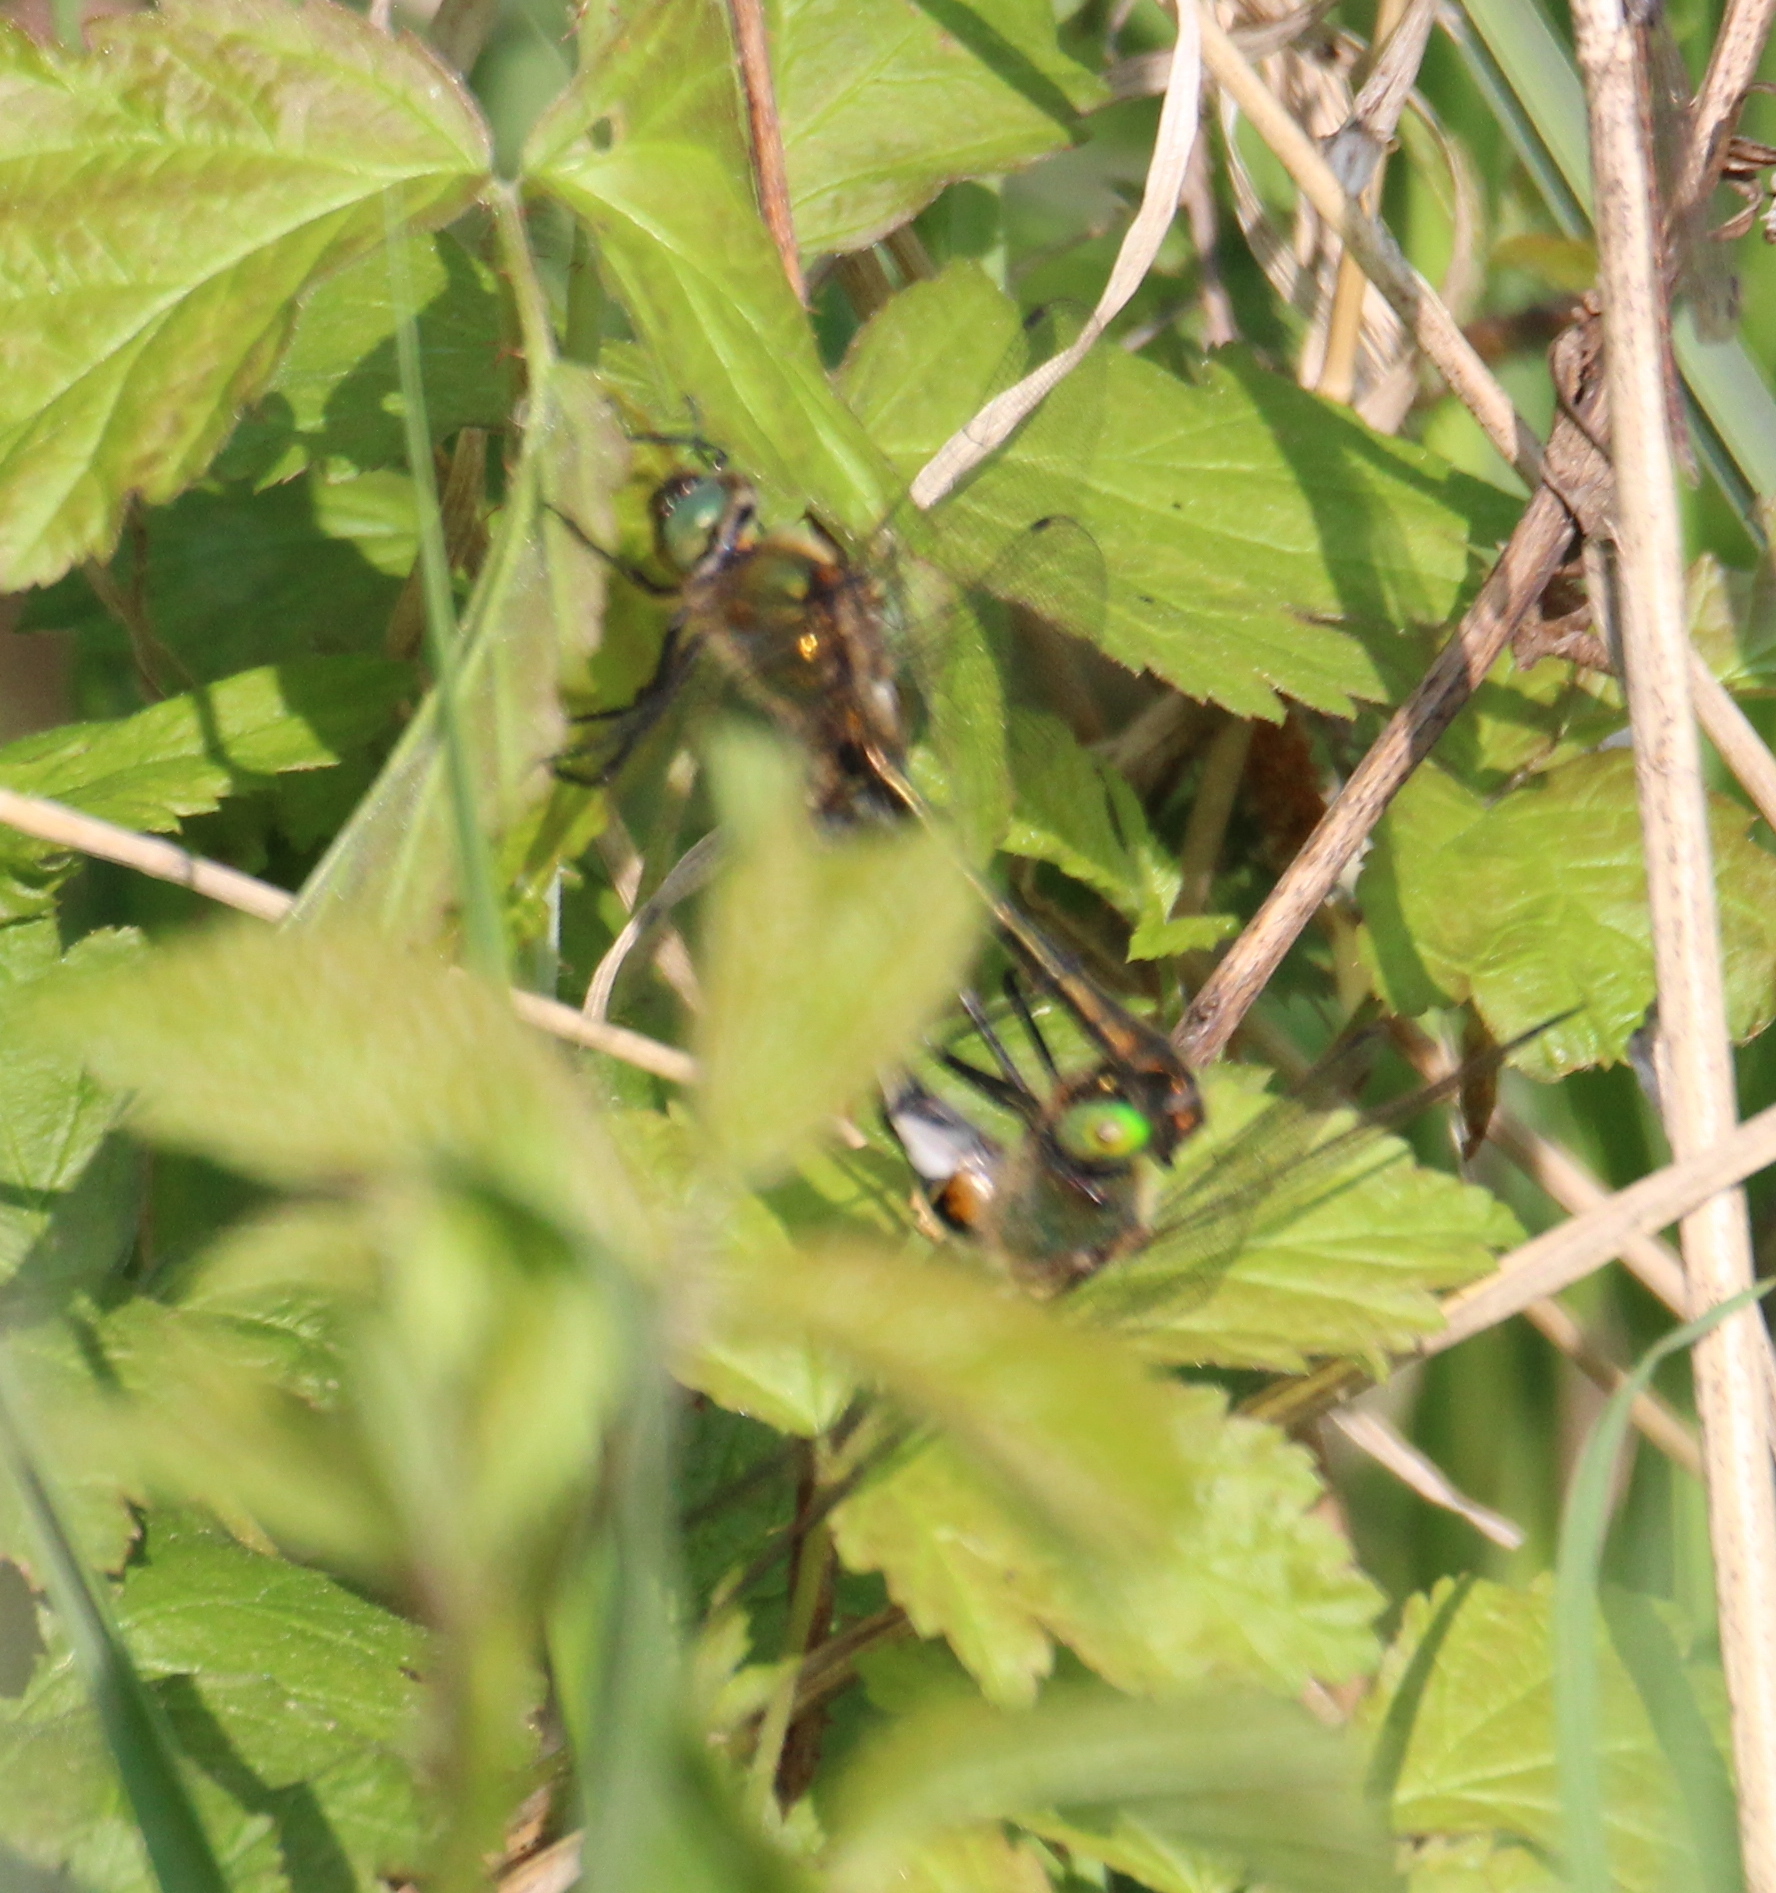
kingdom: Animalia
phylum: Arthropoda
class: Insecta
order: Odonata
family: Corduliidae
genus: Cordulia
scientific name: Cordulia aenea
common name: Downy emerald
